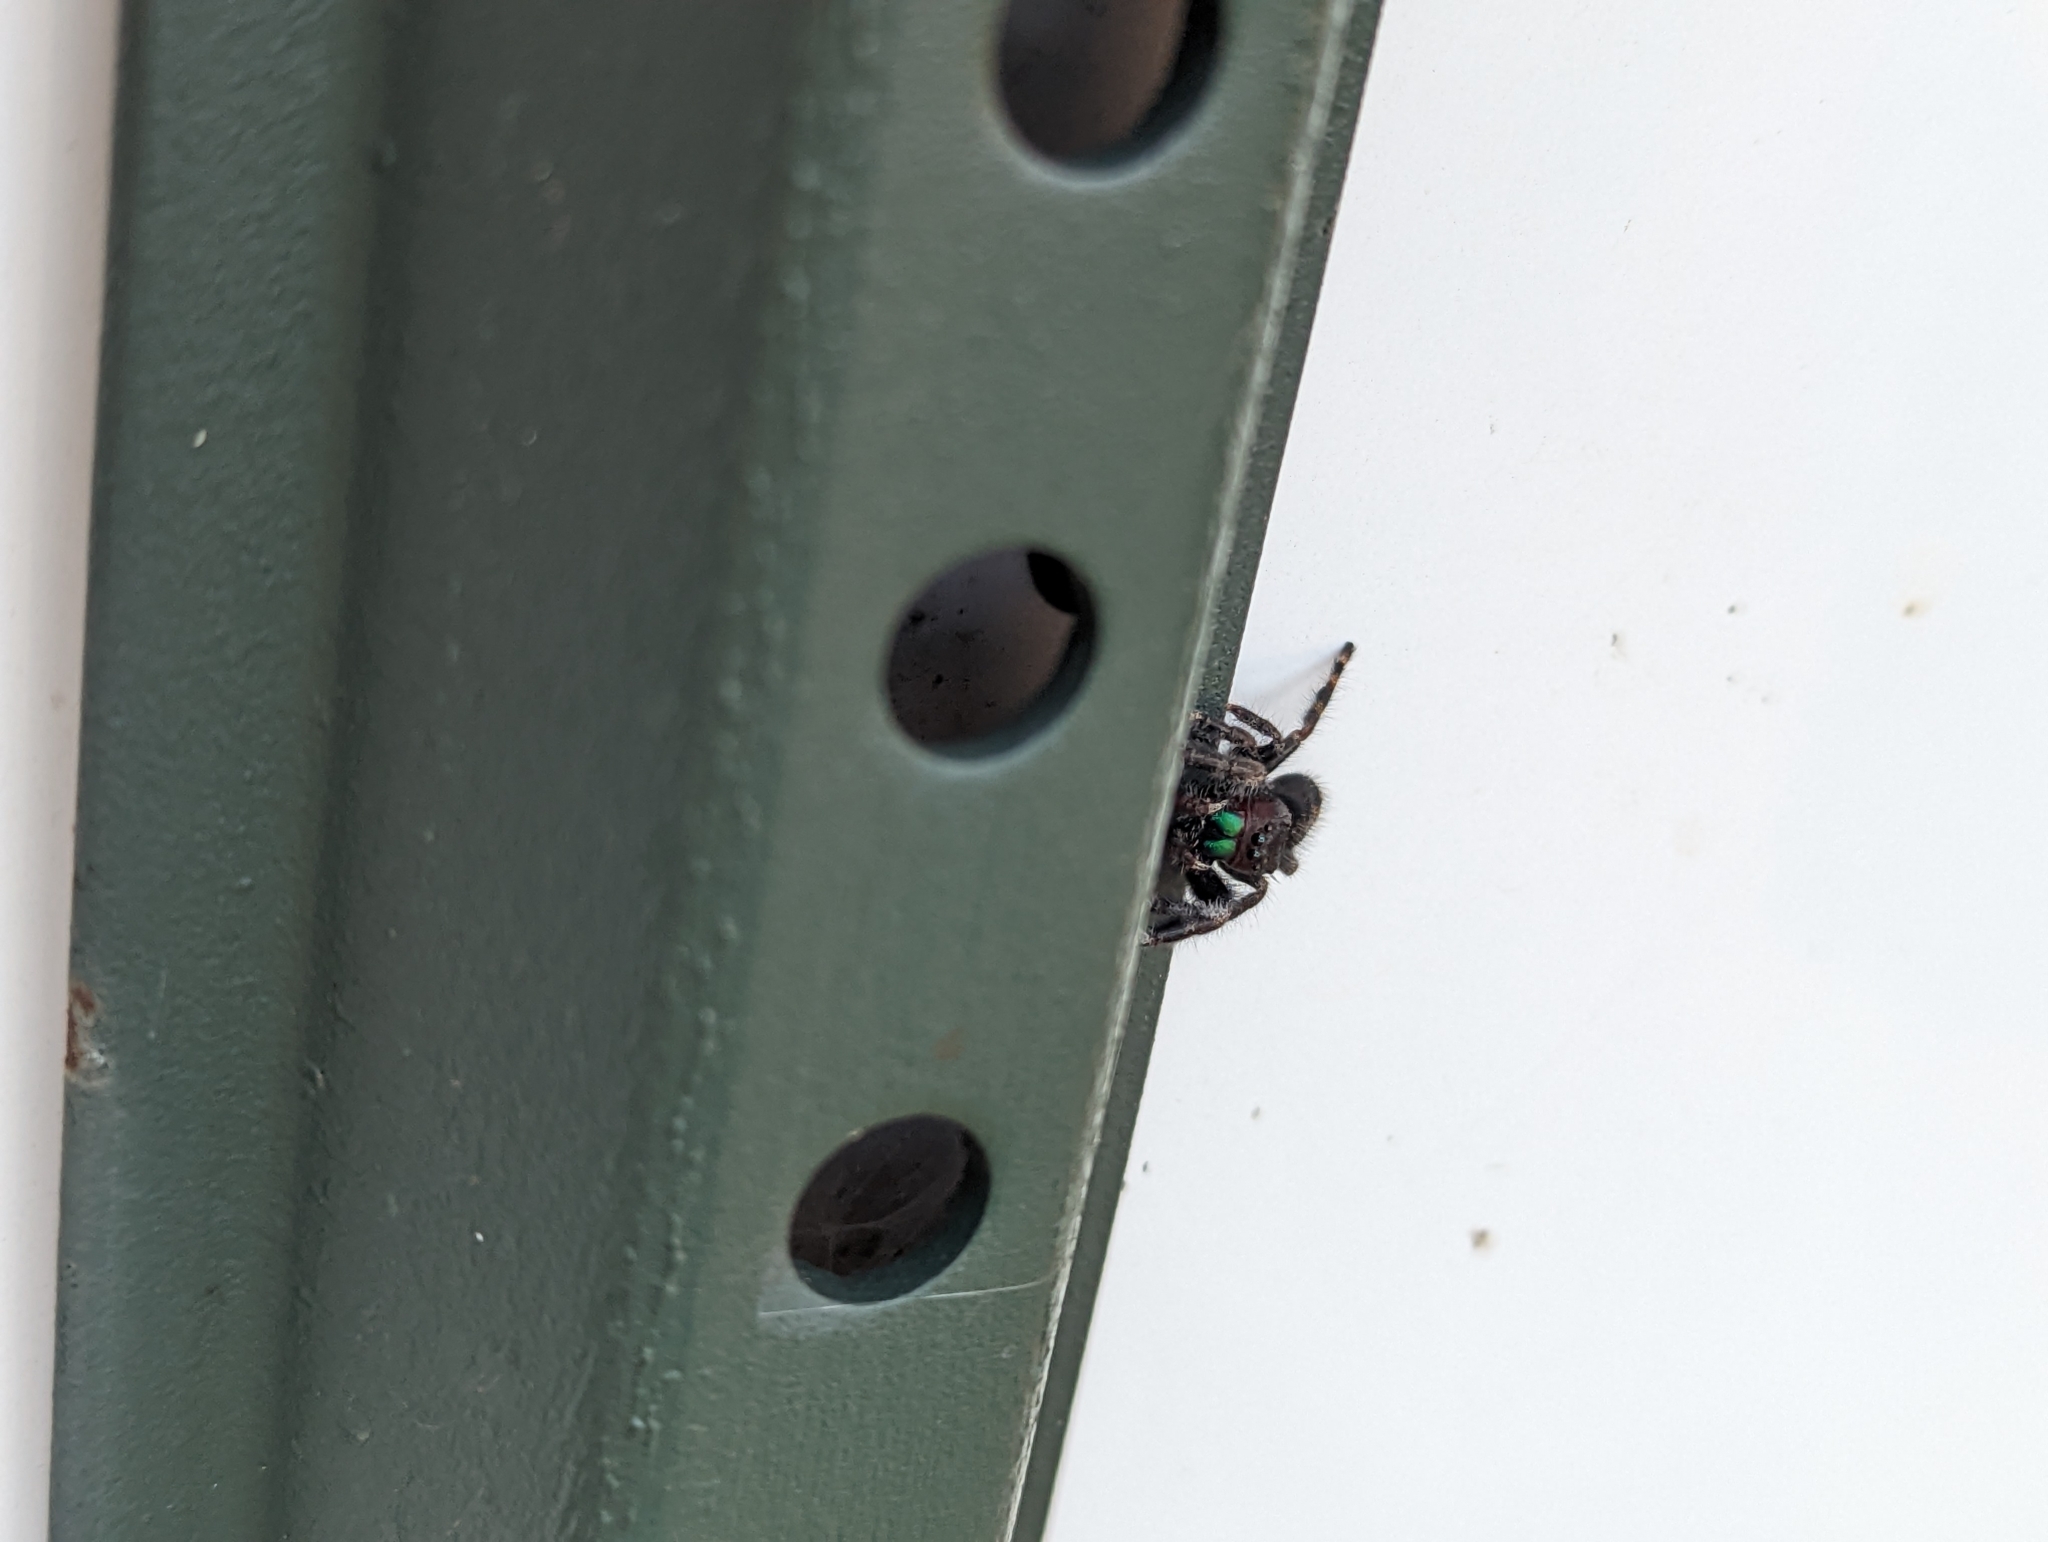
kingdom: Animalia
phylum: Arthropoda
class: Arachnida
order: Araneae
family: Salticidae
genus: Phidippus
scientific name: Phidippus audax
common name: Bold jumper
